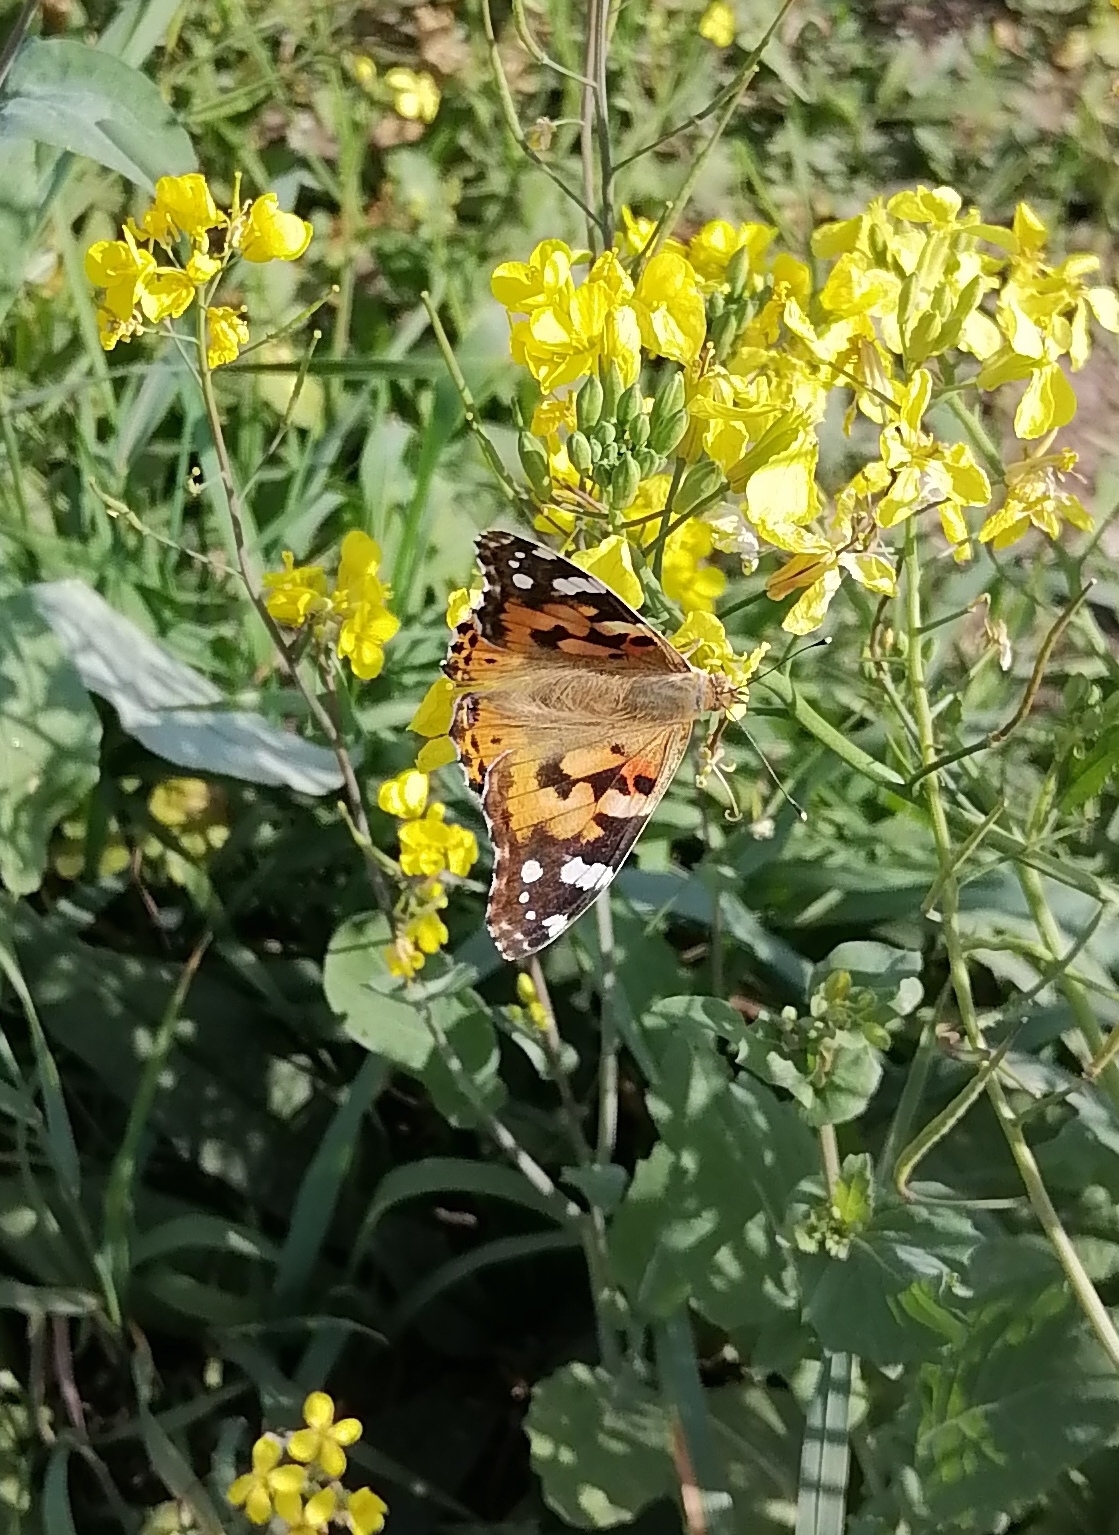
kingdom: Animalia
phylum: Arthropoda
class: Insecta
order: Lepidoptera
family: Nymphalidae
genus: Vanessa
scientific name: Vanessa cardui
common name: Painted lady
